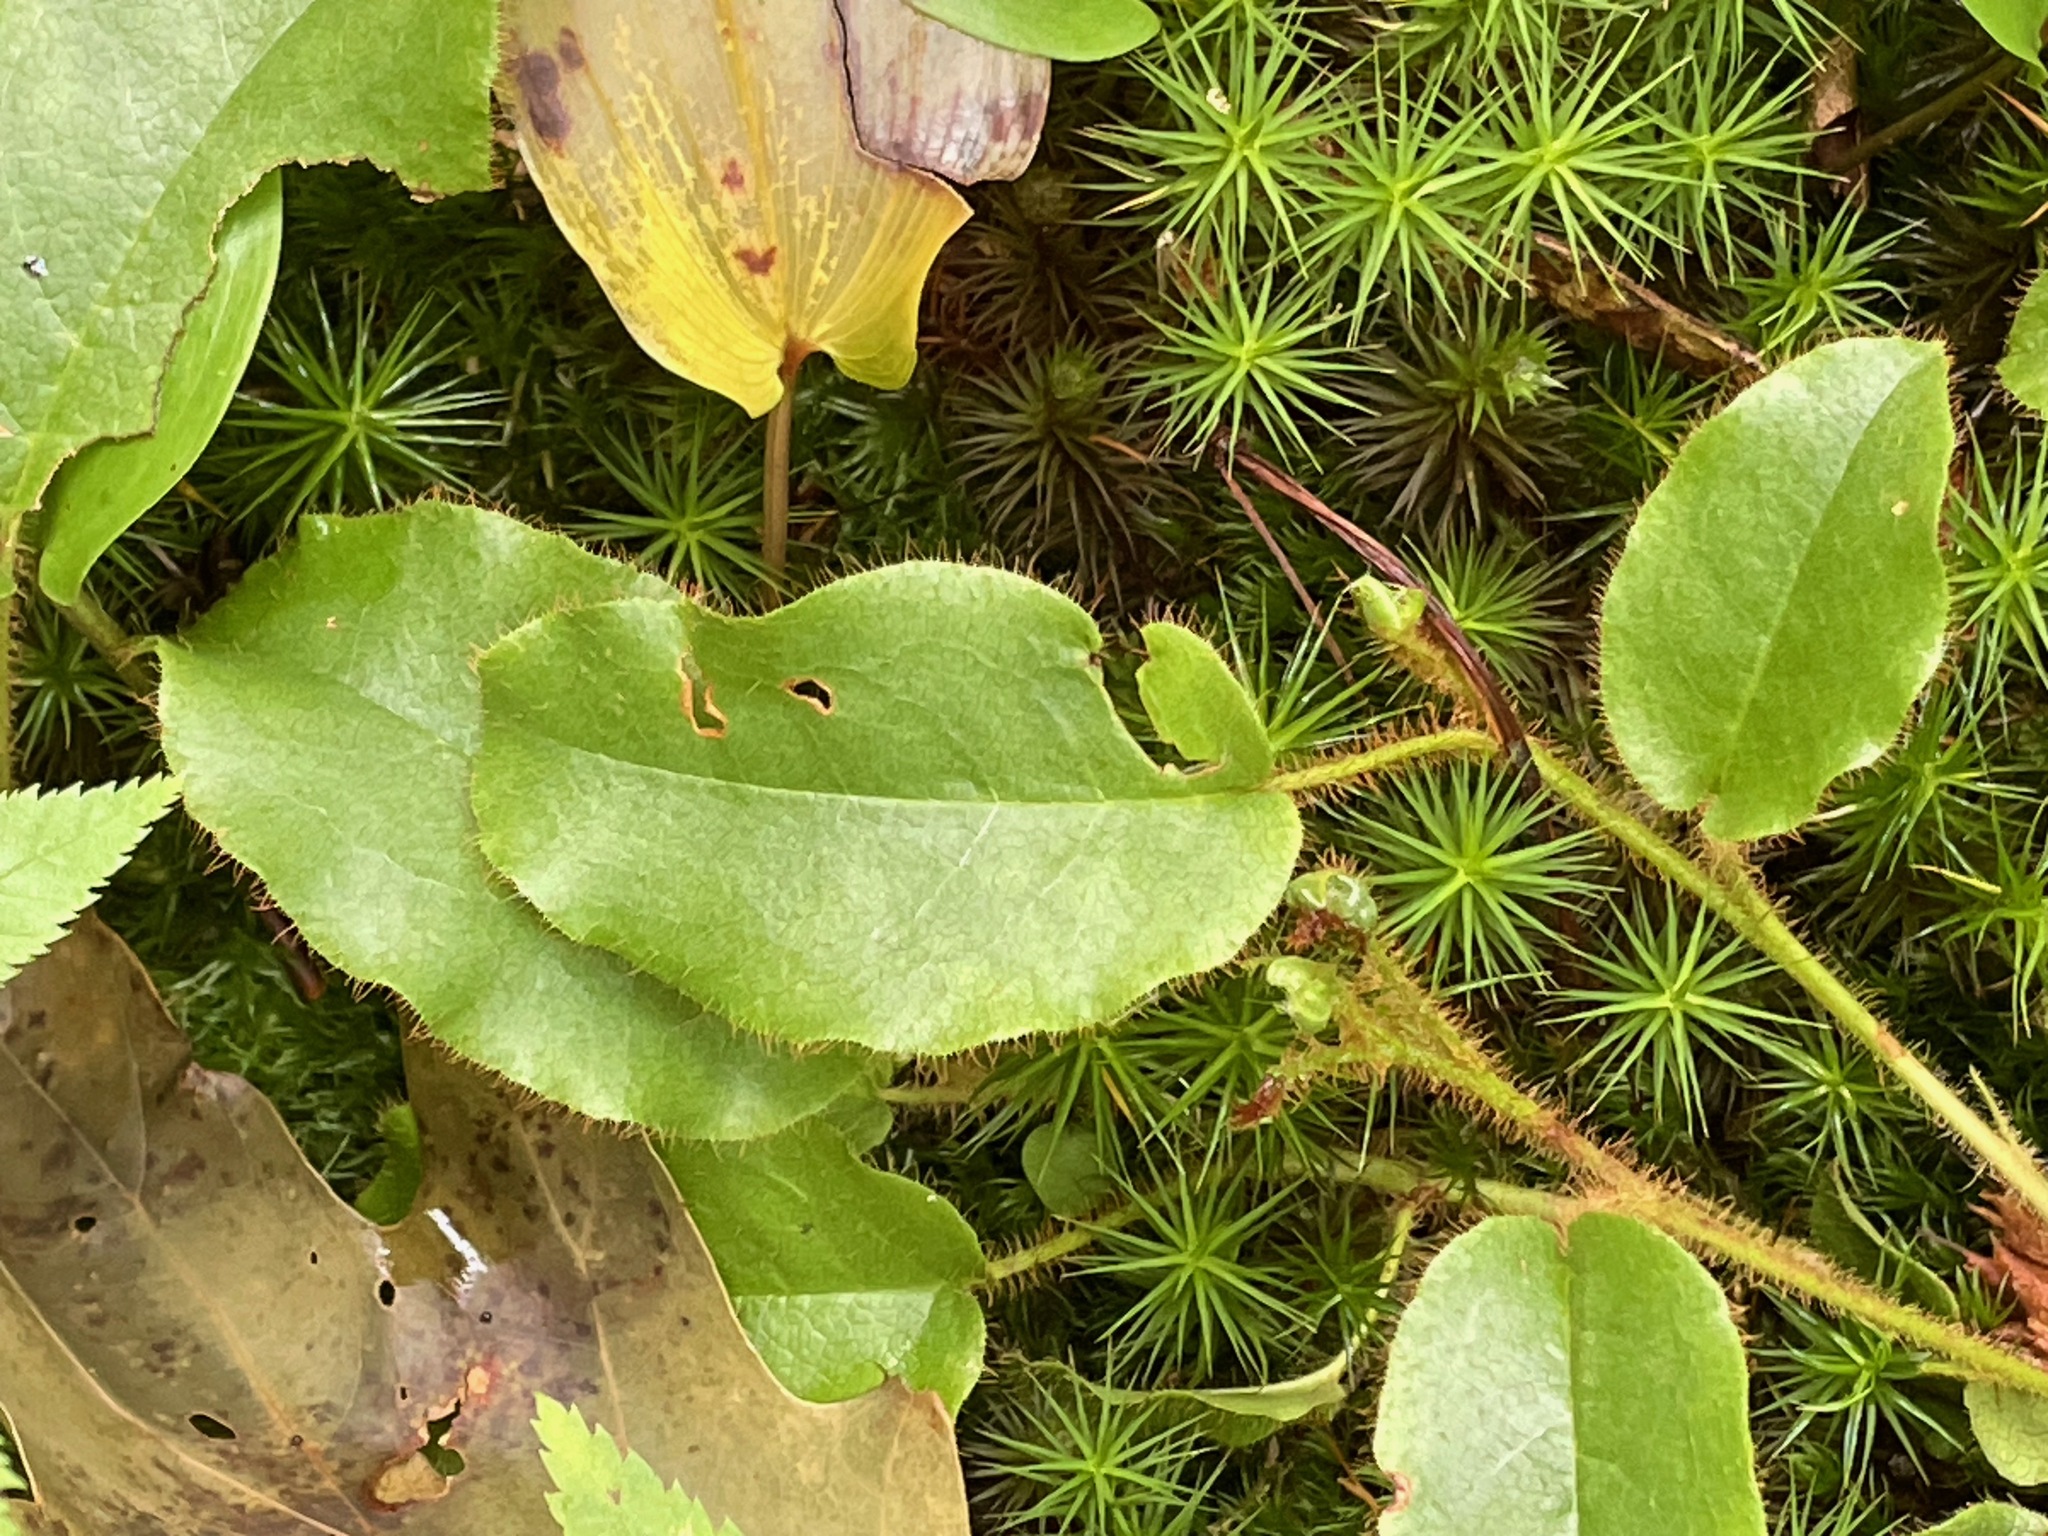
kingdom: Plantae
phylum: Tracheophyta
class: Magnoliopsida
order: Ericales
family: Ericaceae
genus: Epigaea
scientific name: Epigaea repens
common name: Gravelroot
